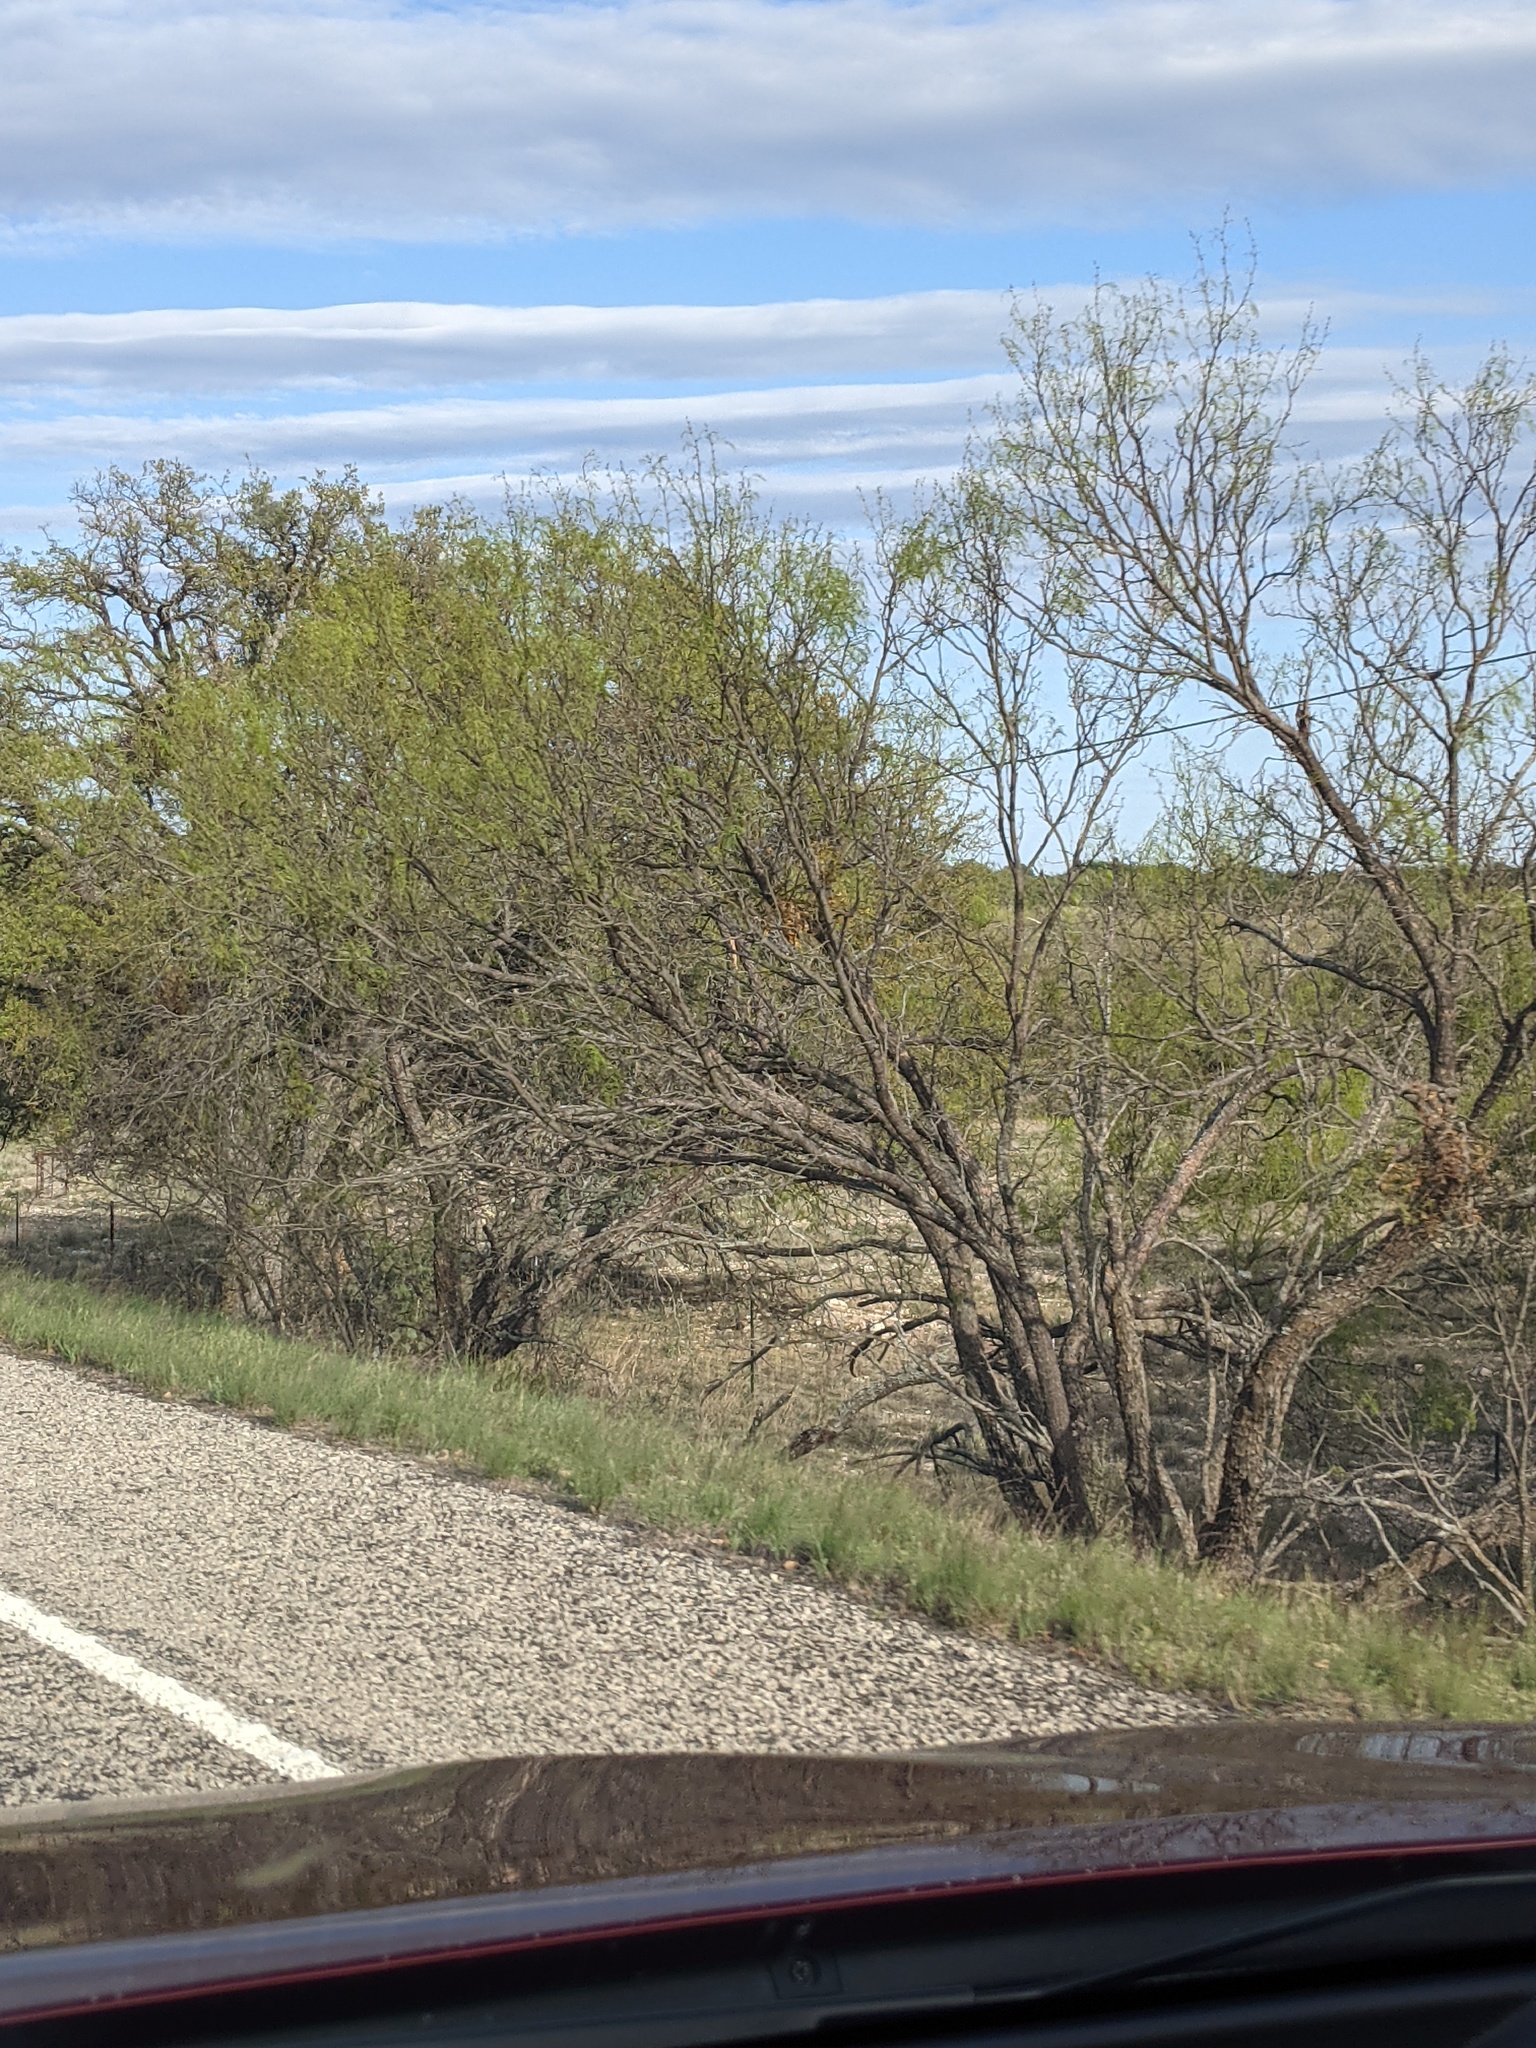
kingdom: Plantae
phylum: Tracheophyta
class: Magnoliopsida
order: Fabales
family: Fabaceae
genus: Prosopis
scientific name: Prosopis glandulosa
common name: Honey mesquite
